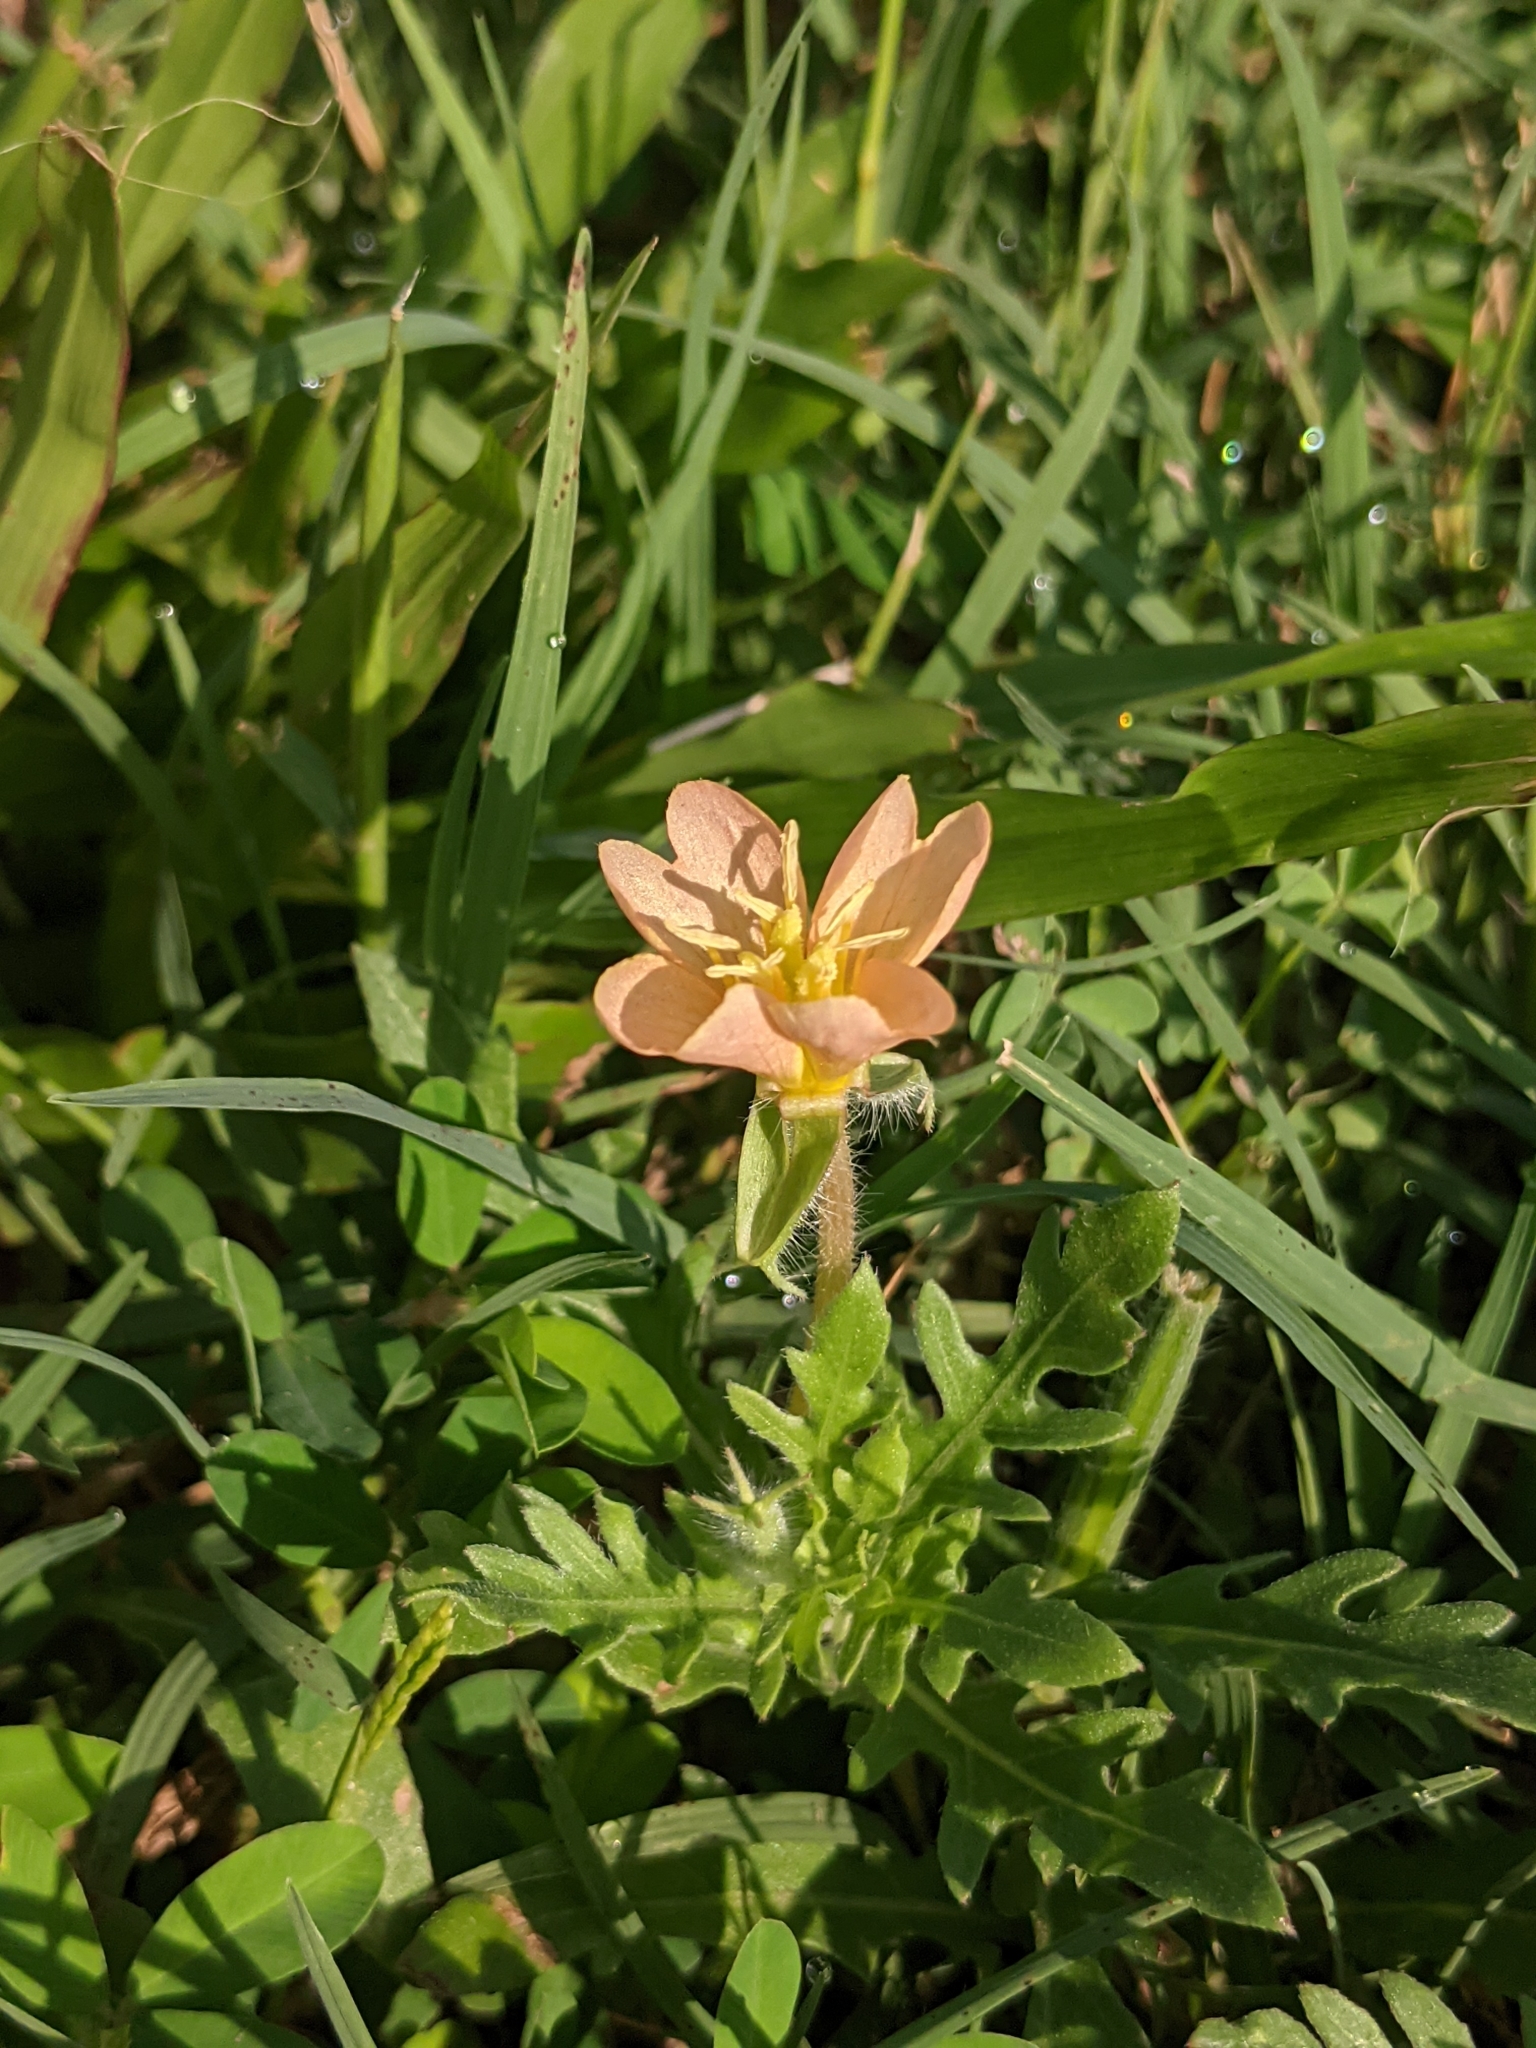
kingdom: Plantae
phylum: Tracheophyta
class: Magnoliopsida
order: Myrtales
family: Onagraceae
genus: Oenothera
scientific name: Oenothera laciniata
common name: Cut-leaved evening-primrose
